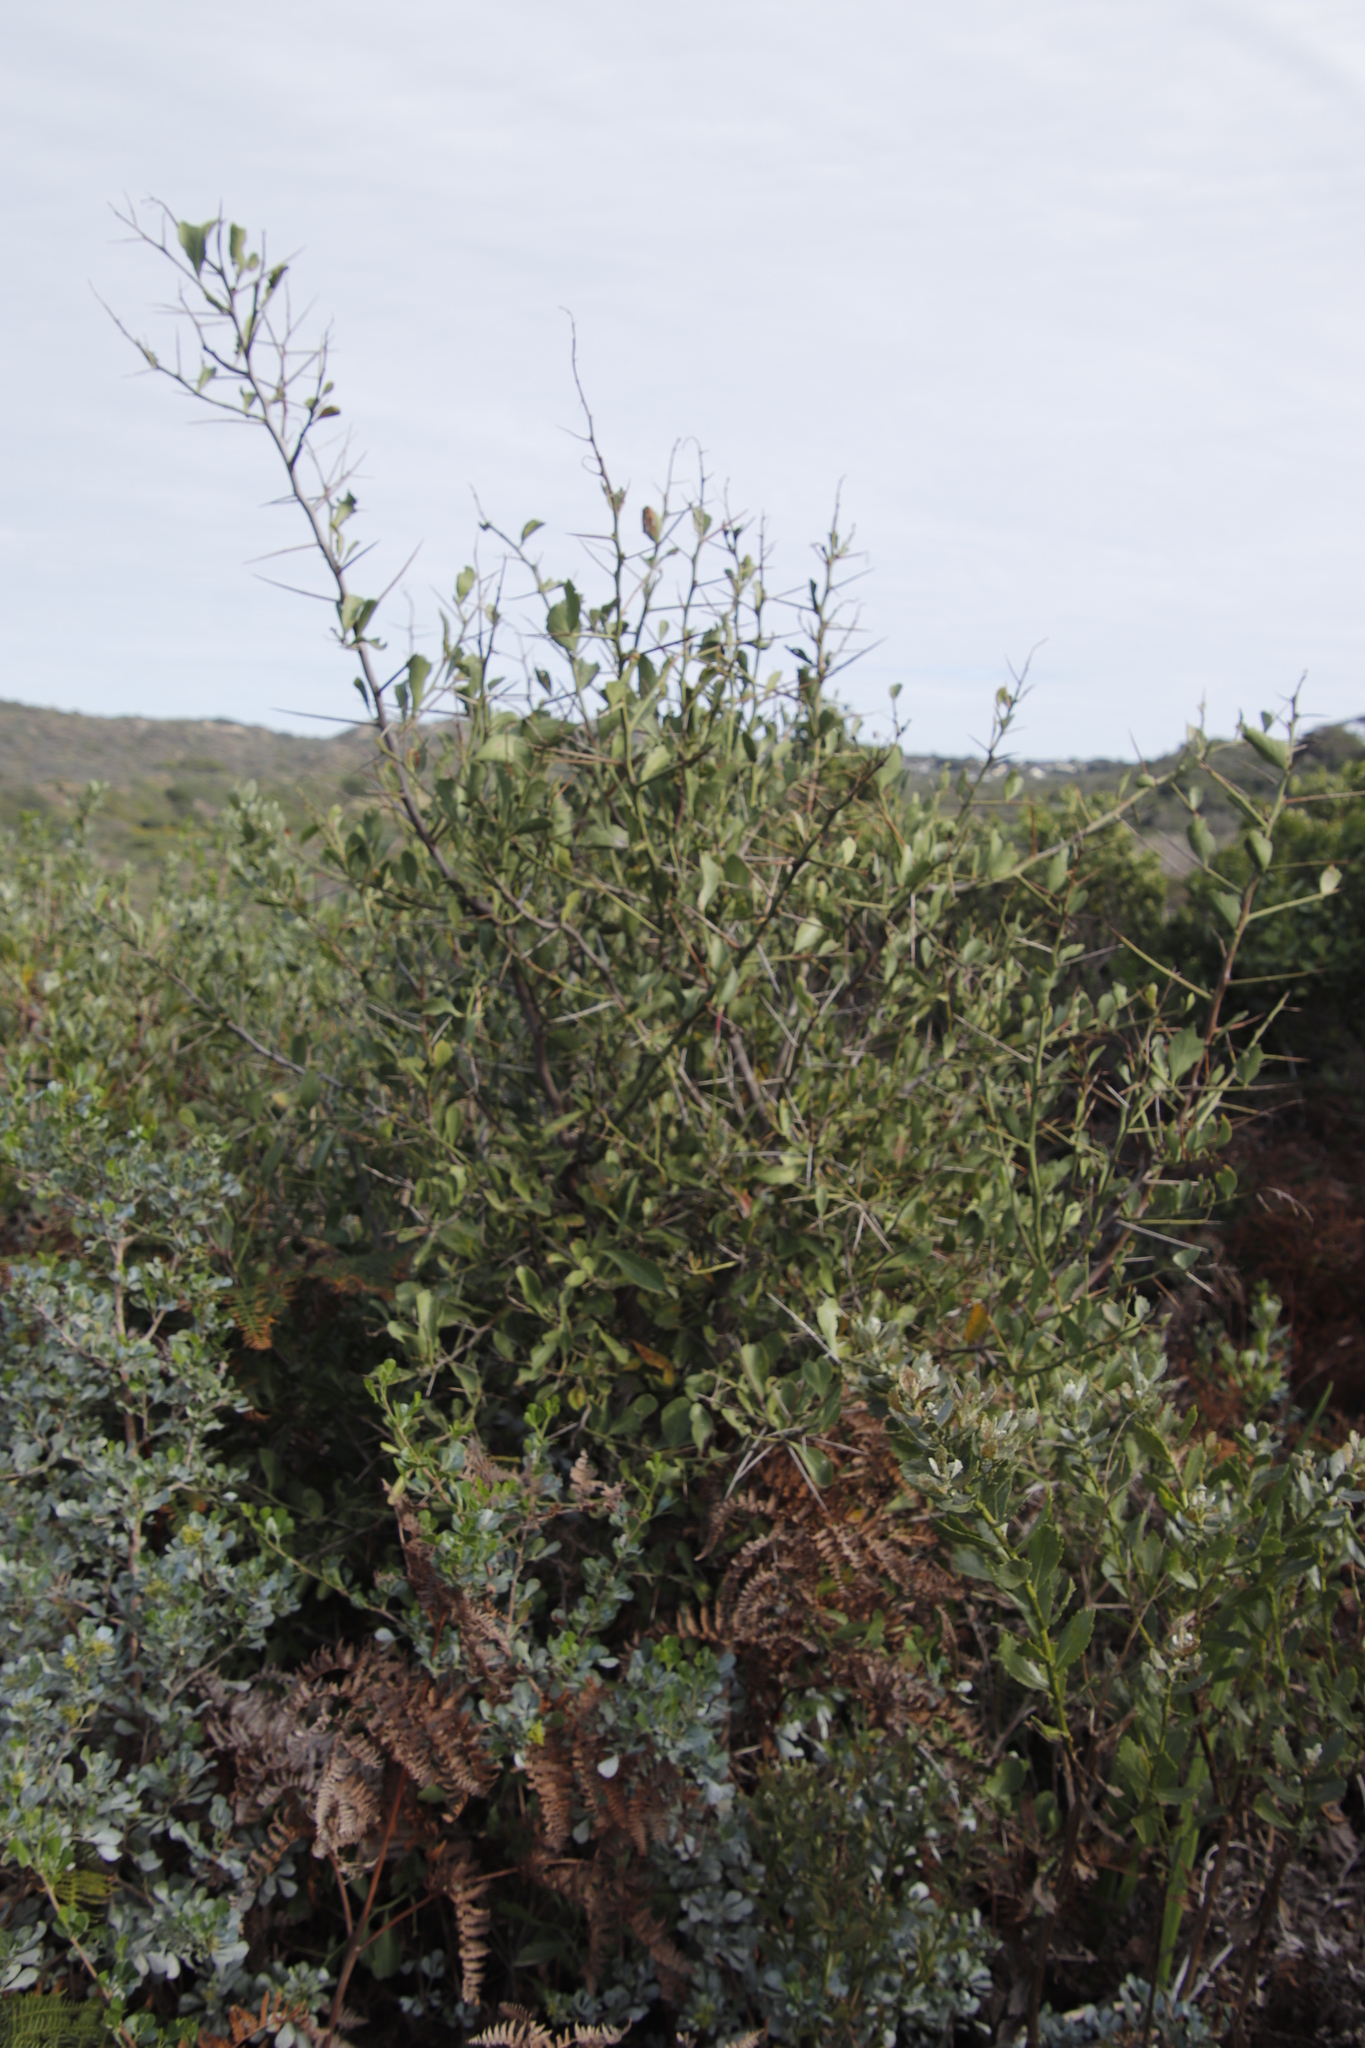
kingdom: Plantae
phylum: Tracheophyta
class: Magnoliopsida
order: Celastrales
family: Celastraceae
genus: Gymnosporia
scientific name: Gymnosporia buxifolia
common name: Common spike-thorn
